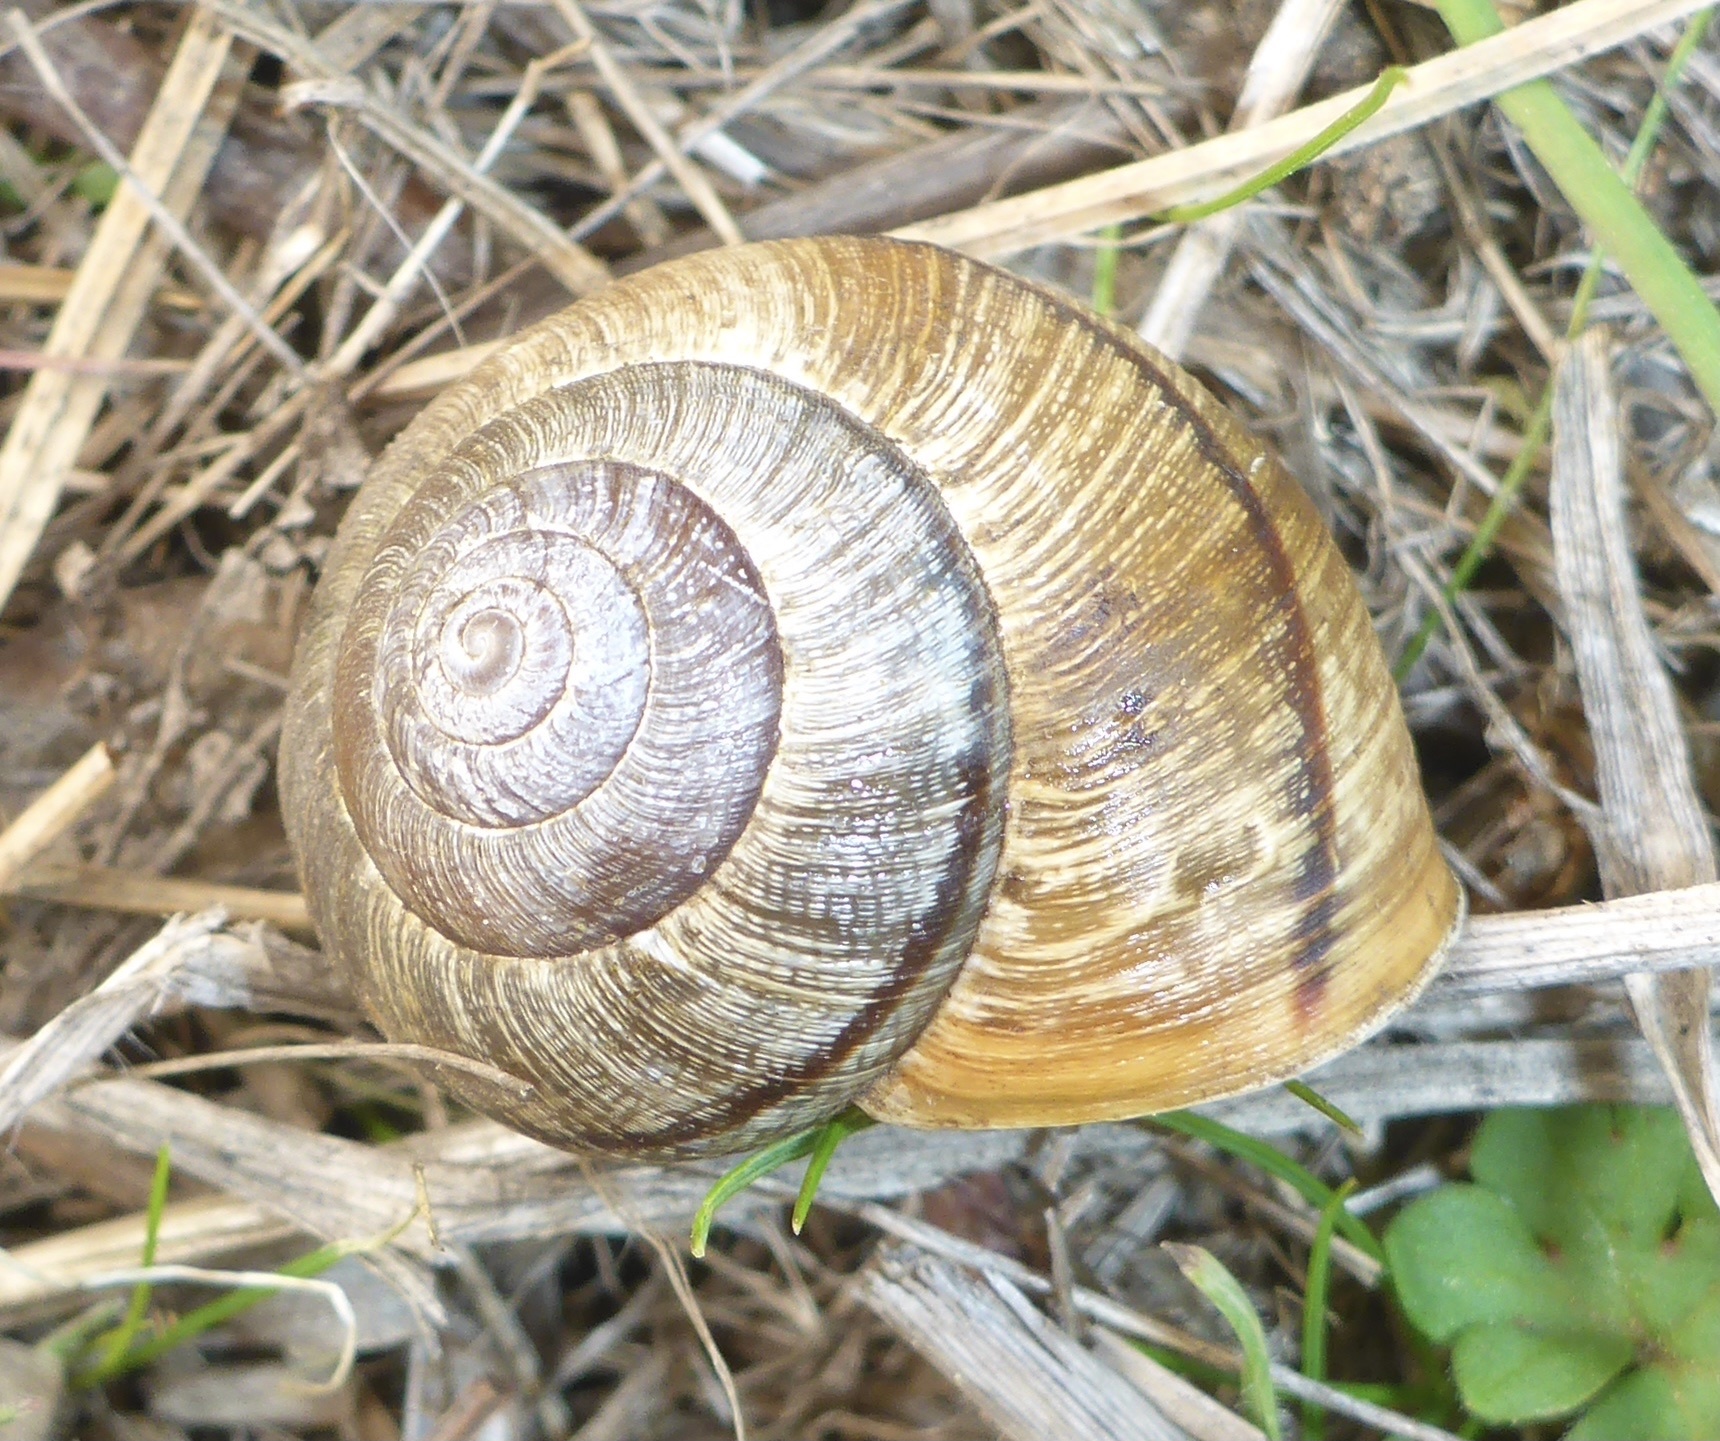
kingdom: Animalia
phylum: Mollusca
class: Gastropoda
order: Stylommatophora
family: Xanthonychidae
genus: Helminthoglypta
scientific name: Helminthoglypta nickliniana
